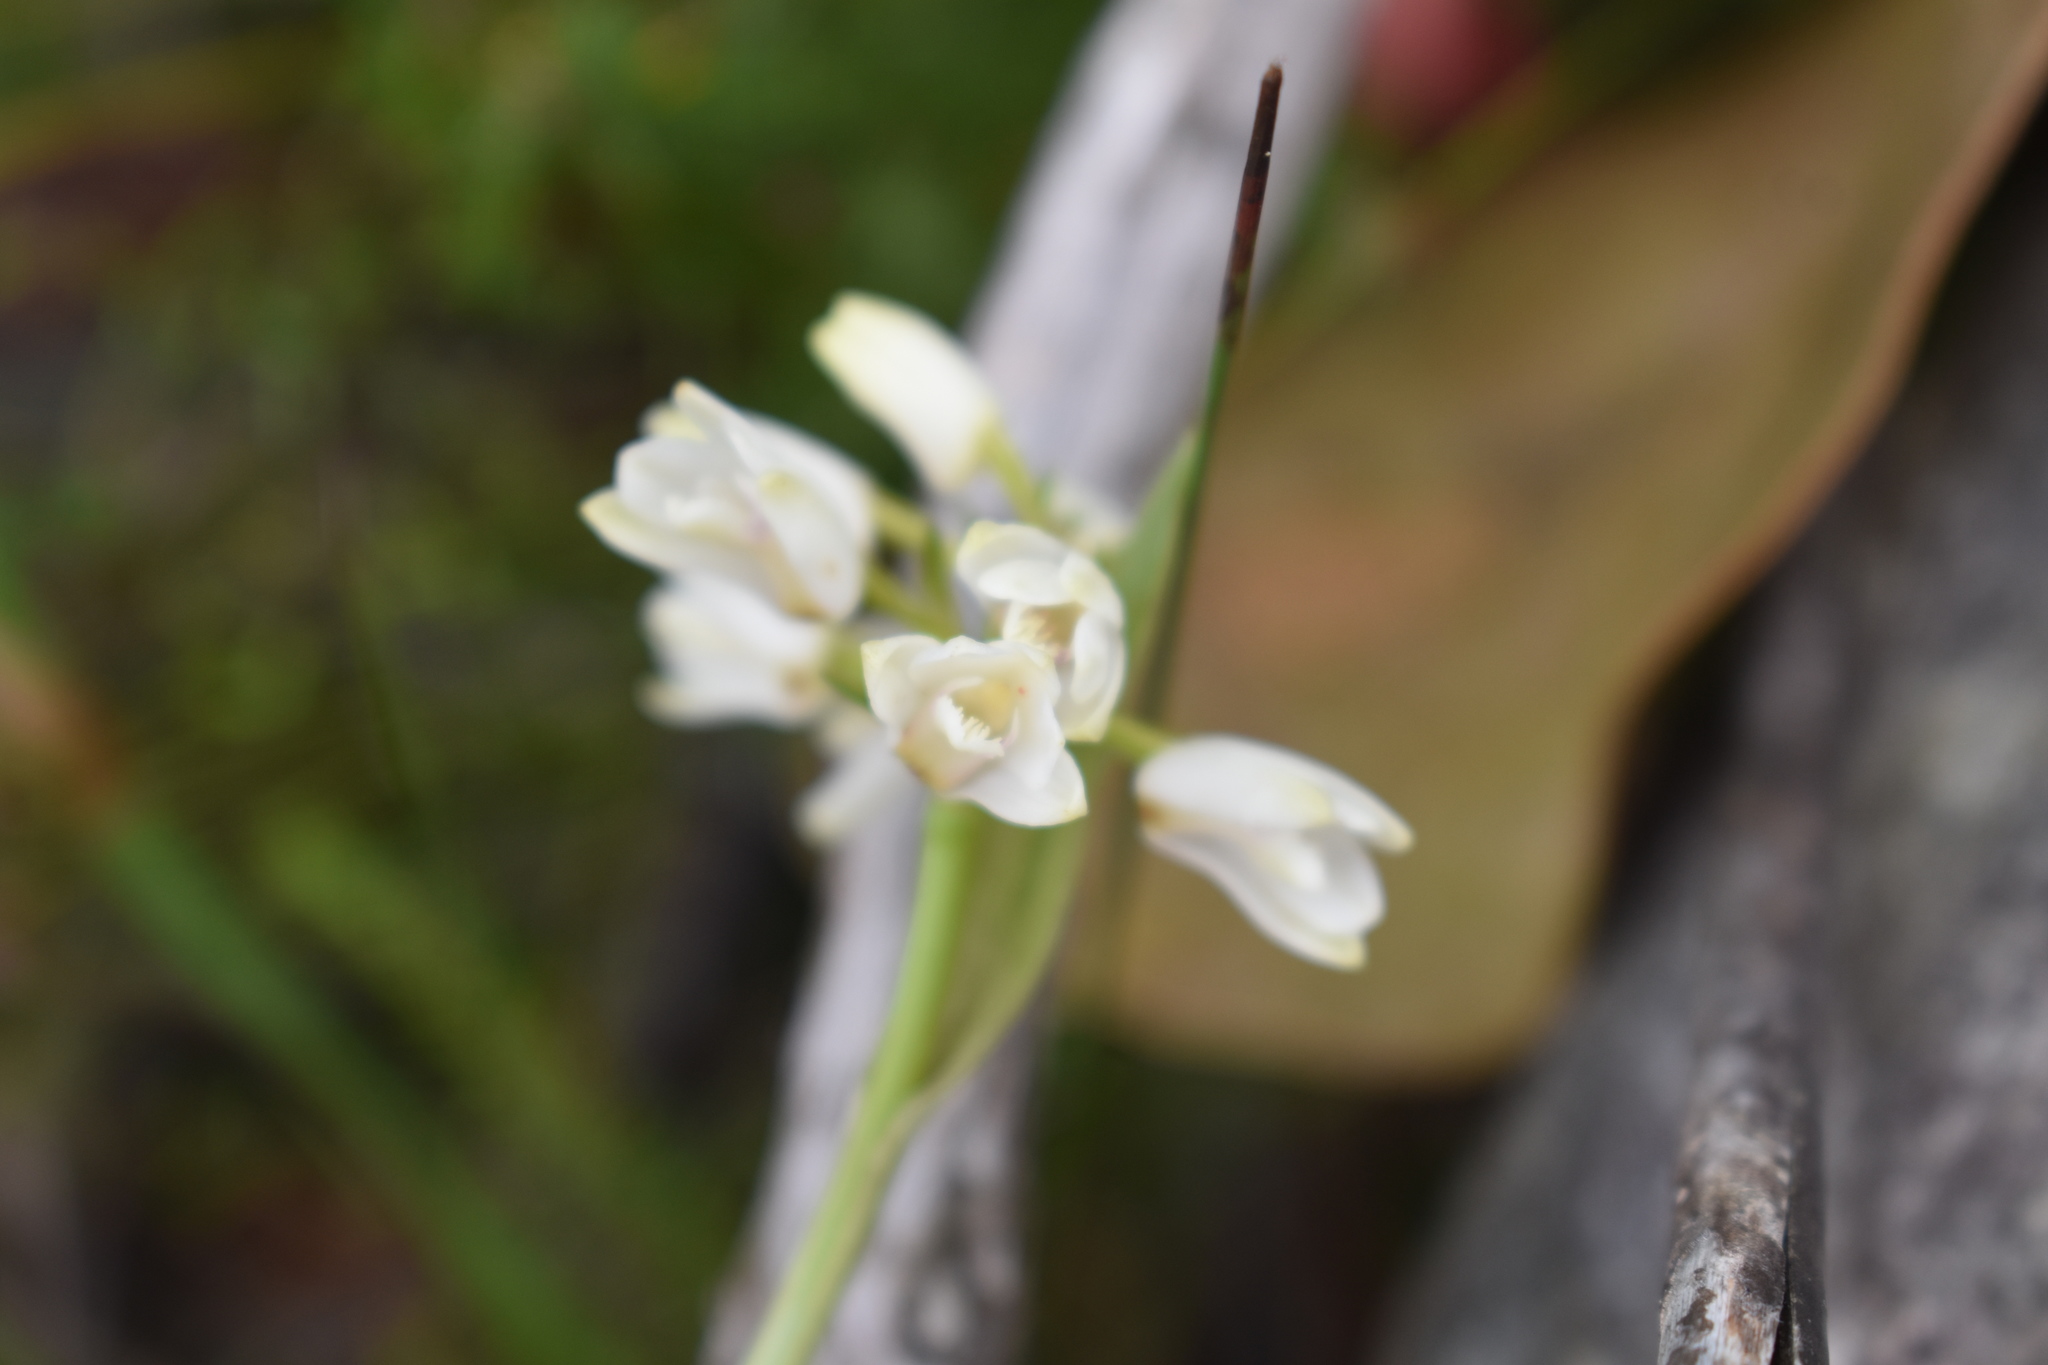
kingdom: Plantae
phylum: Tracheophyta
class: Liliopsida
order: Asparagales
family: Orchidaceae
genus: Eulophia
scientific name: Eulophia aculeata
